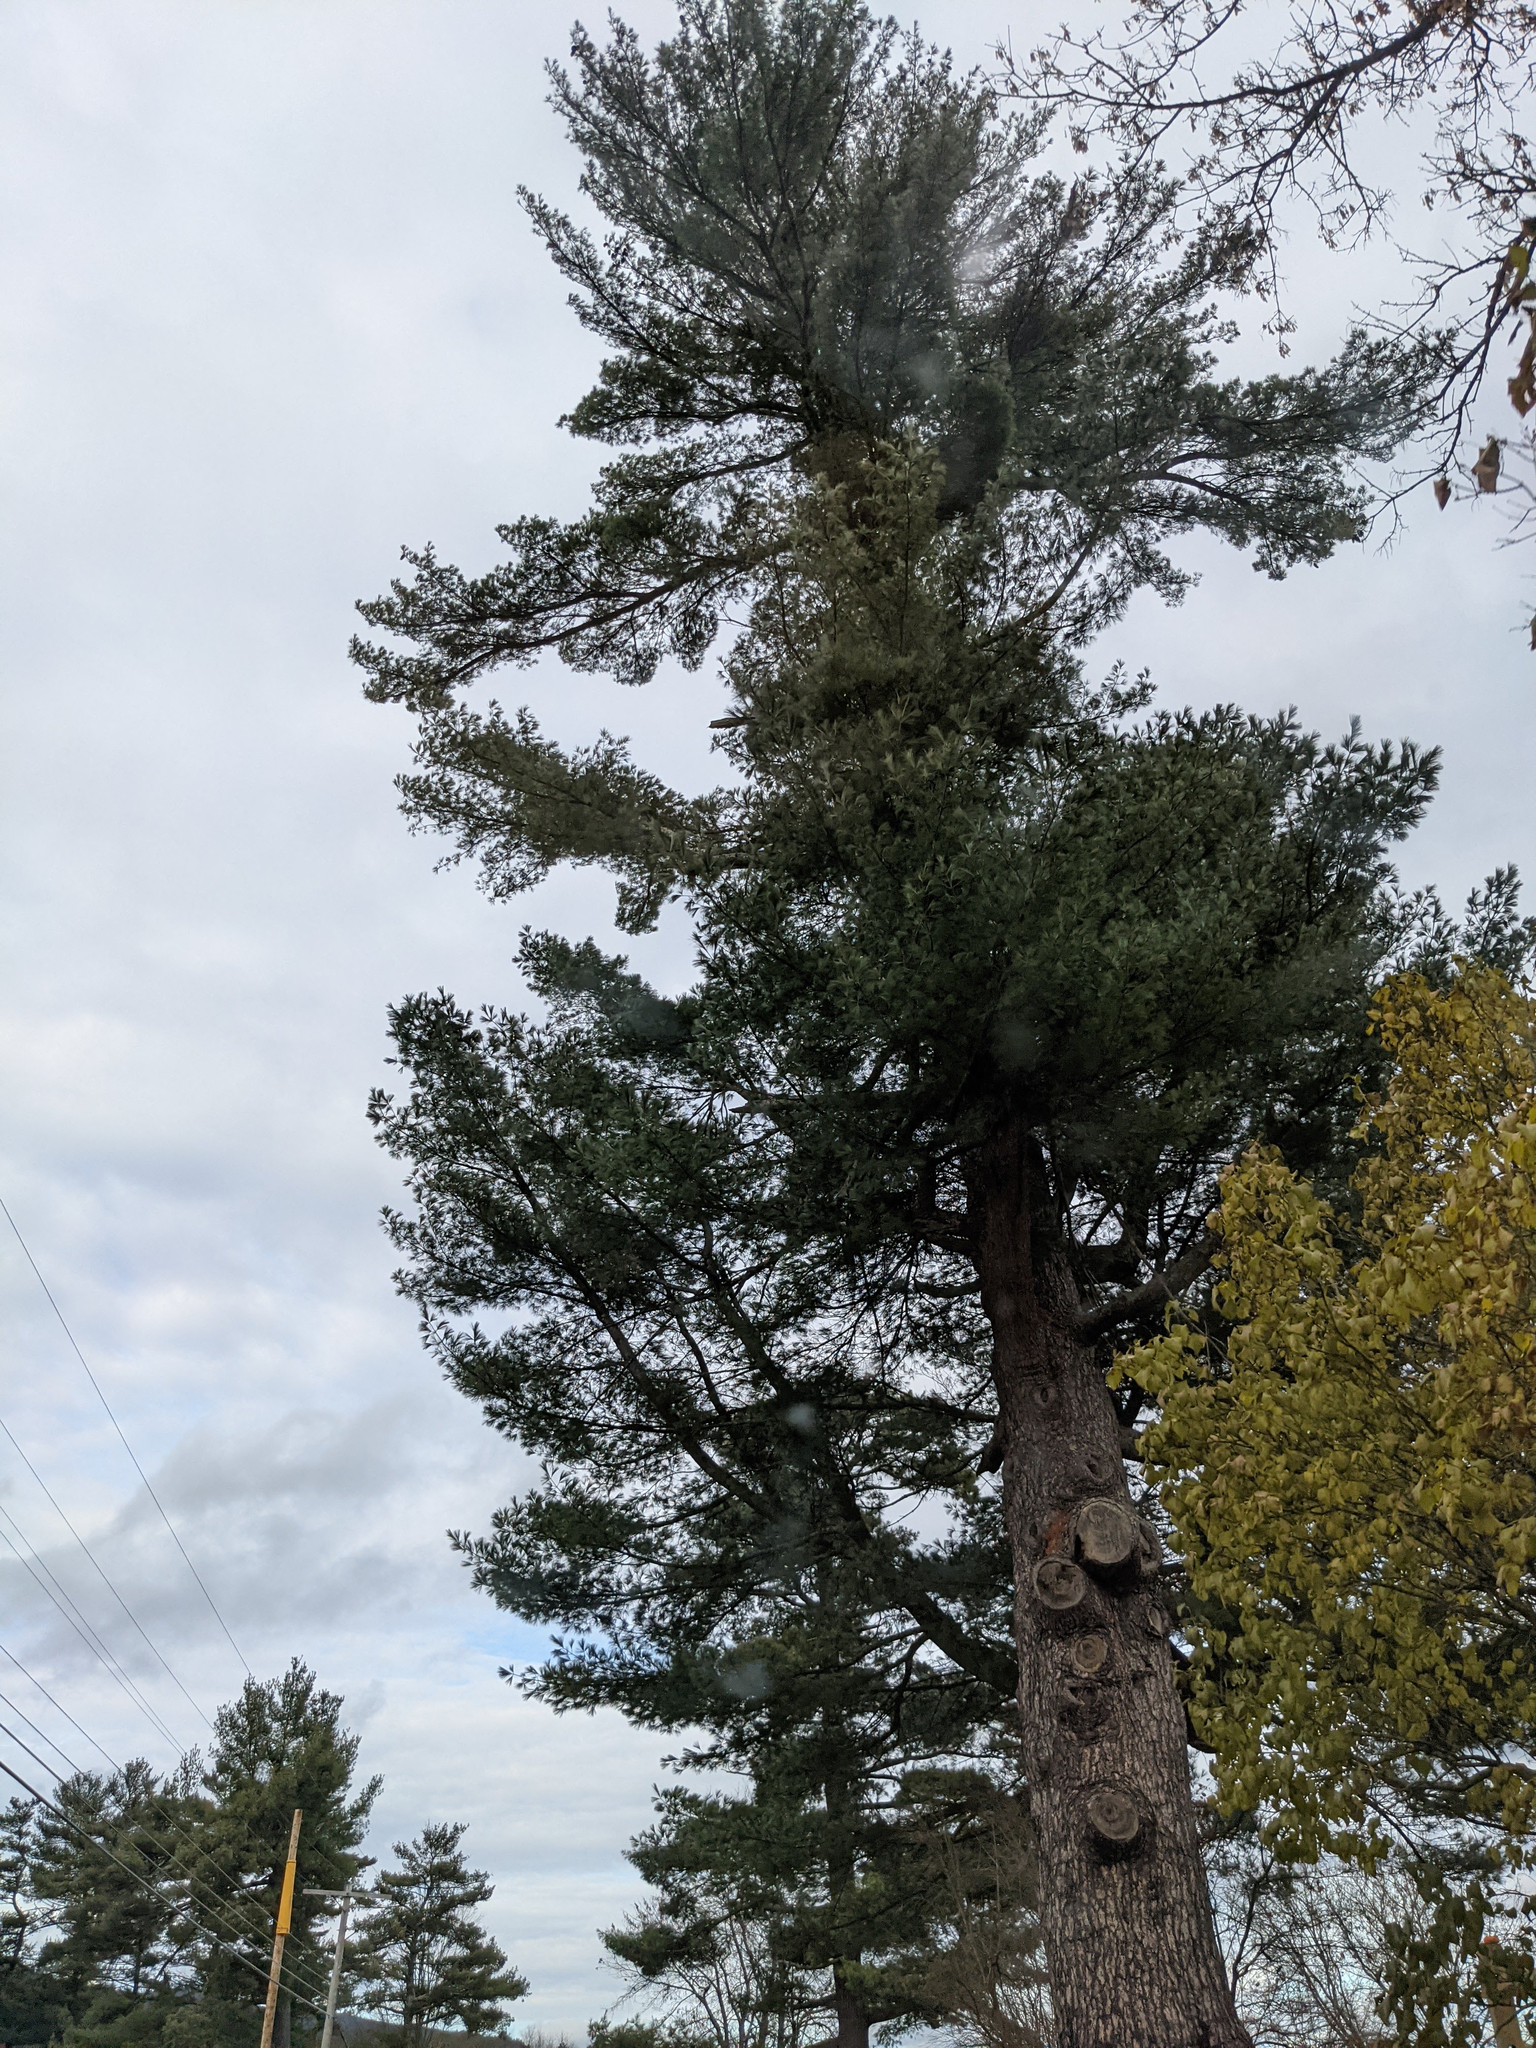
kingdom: Plantae
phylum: Tracheophyta
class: Pinopsida
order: Pinales
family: Pinaceae
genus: Pinus
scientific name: Pinus strobus
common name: Weymouth pine
